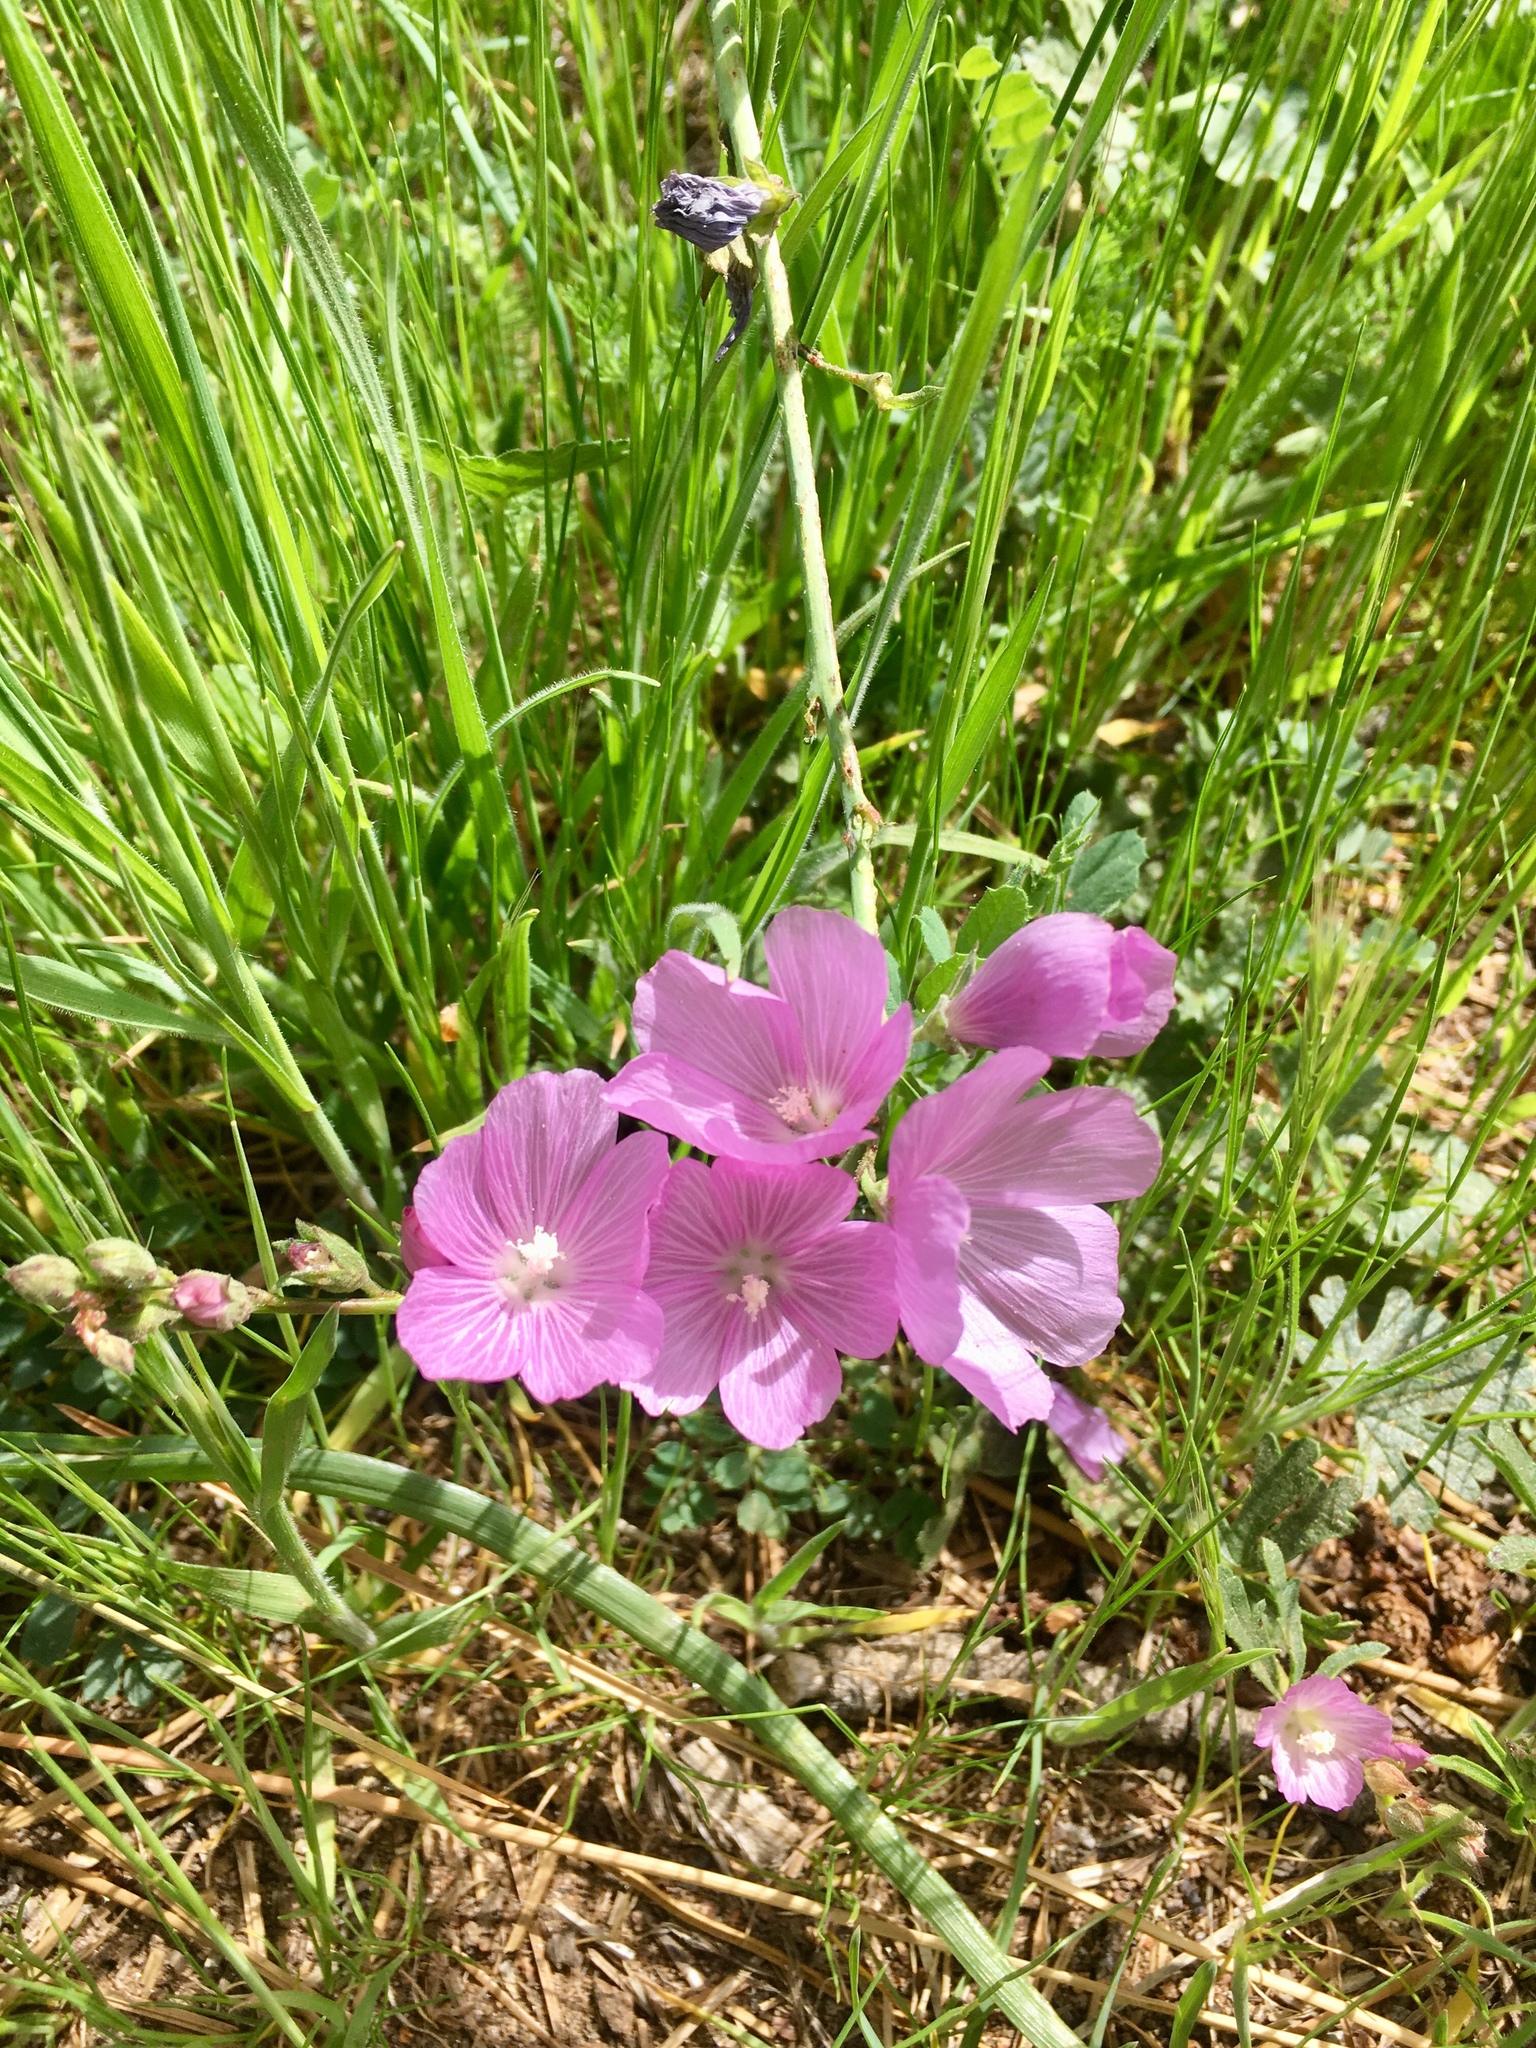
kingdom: Plantae
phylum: Tracheophyta
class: Magnoliopsida
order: Malvales
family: Malvaceae
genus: Sidalcea
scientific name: Sidalcea malviflora
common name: Greek mallow
